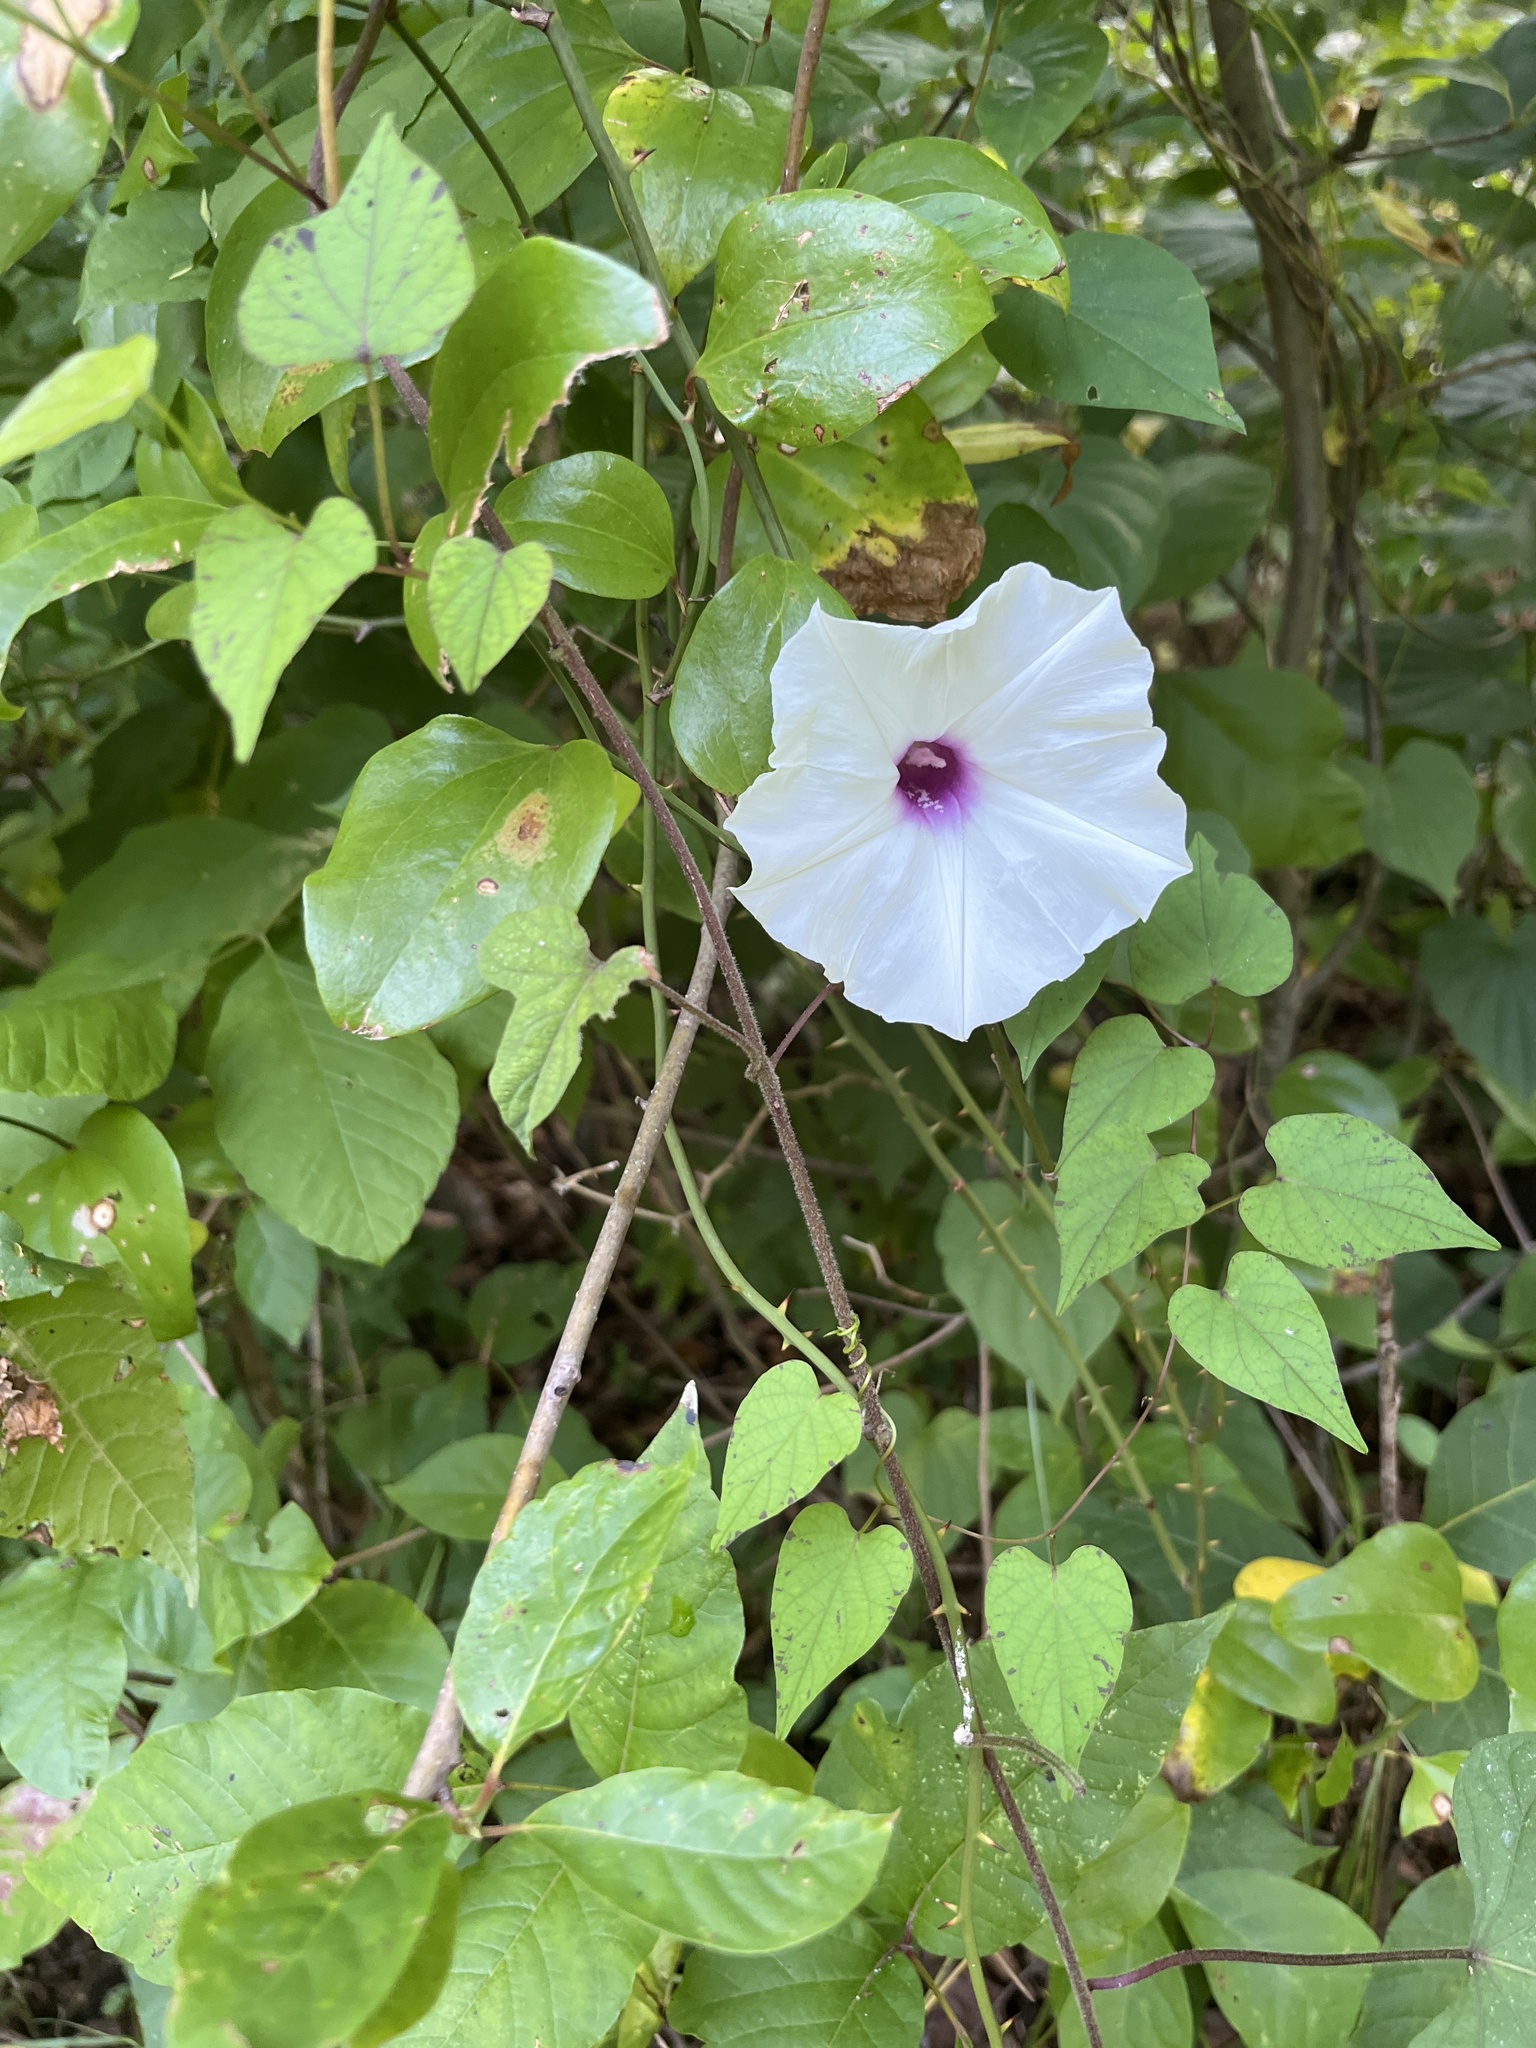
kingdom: Plantae
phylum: Tracheophyta
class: Magnoliopsida
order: Solanales
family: Convolvulaceae
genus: Ipomoea
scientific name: Ipomoea pandurata
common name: Man-of-the-earth
